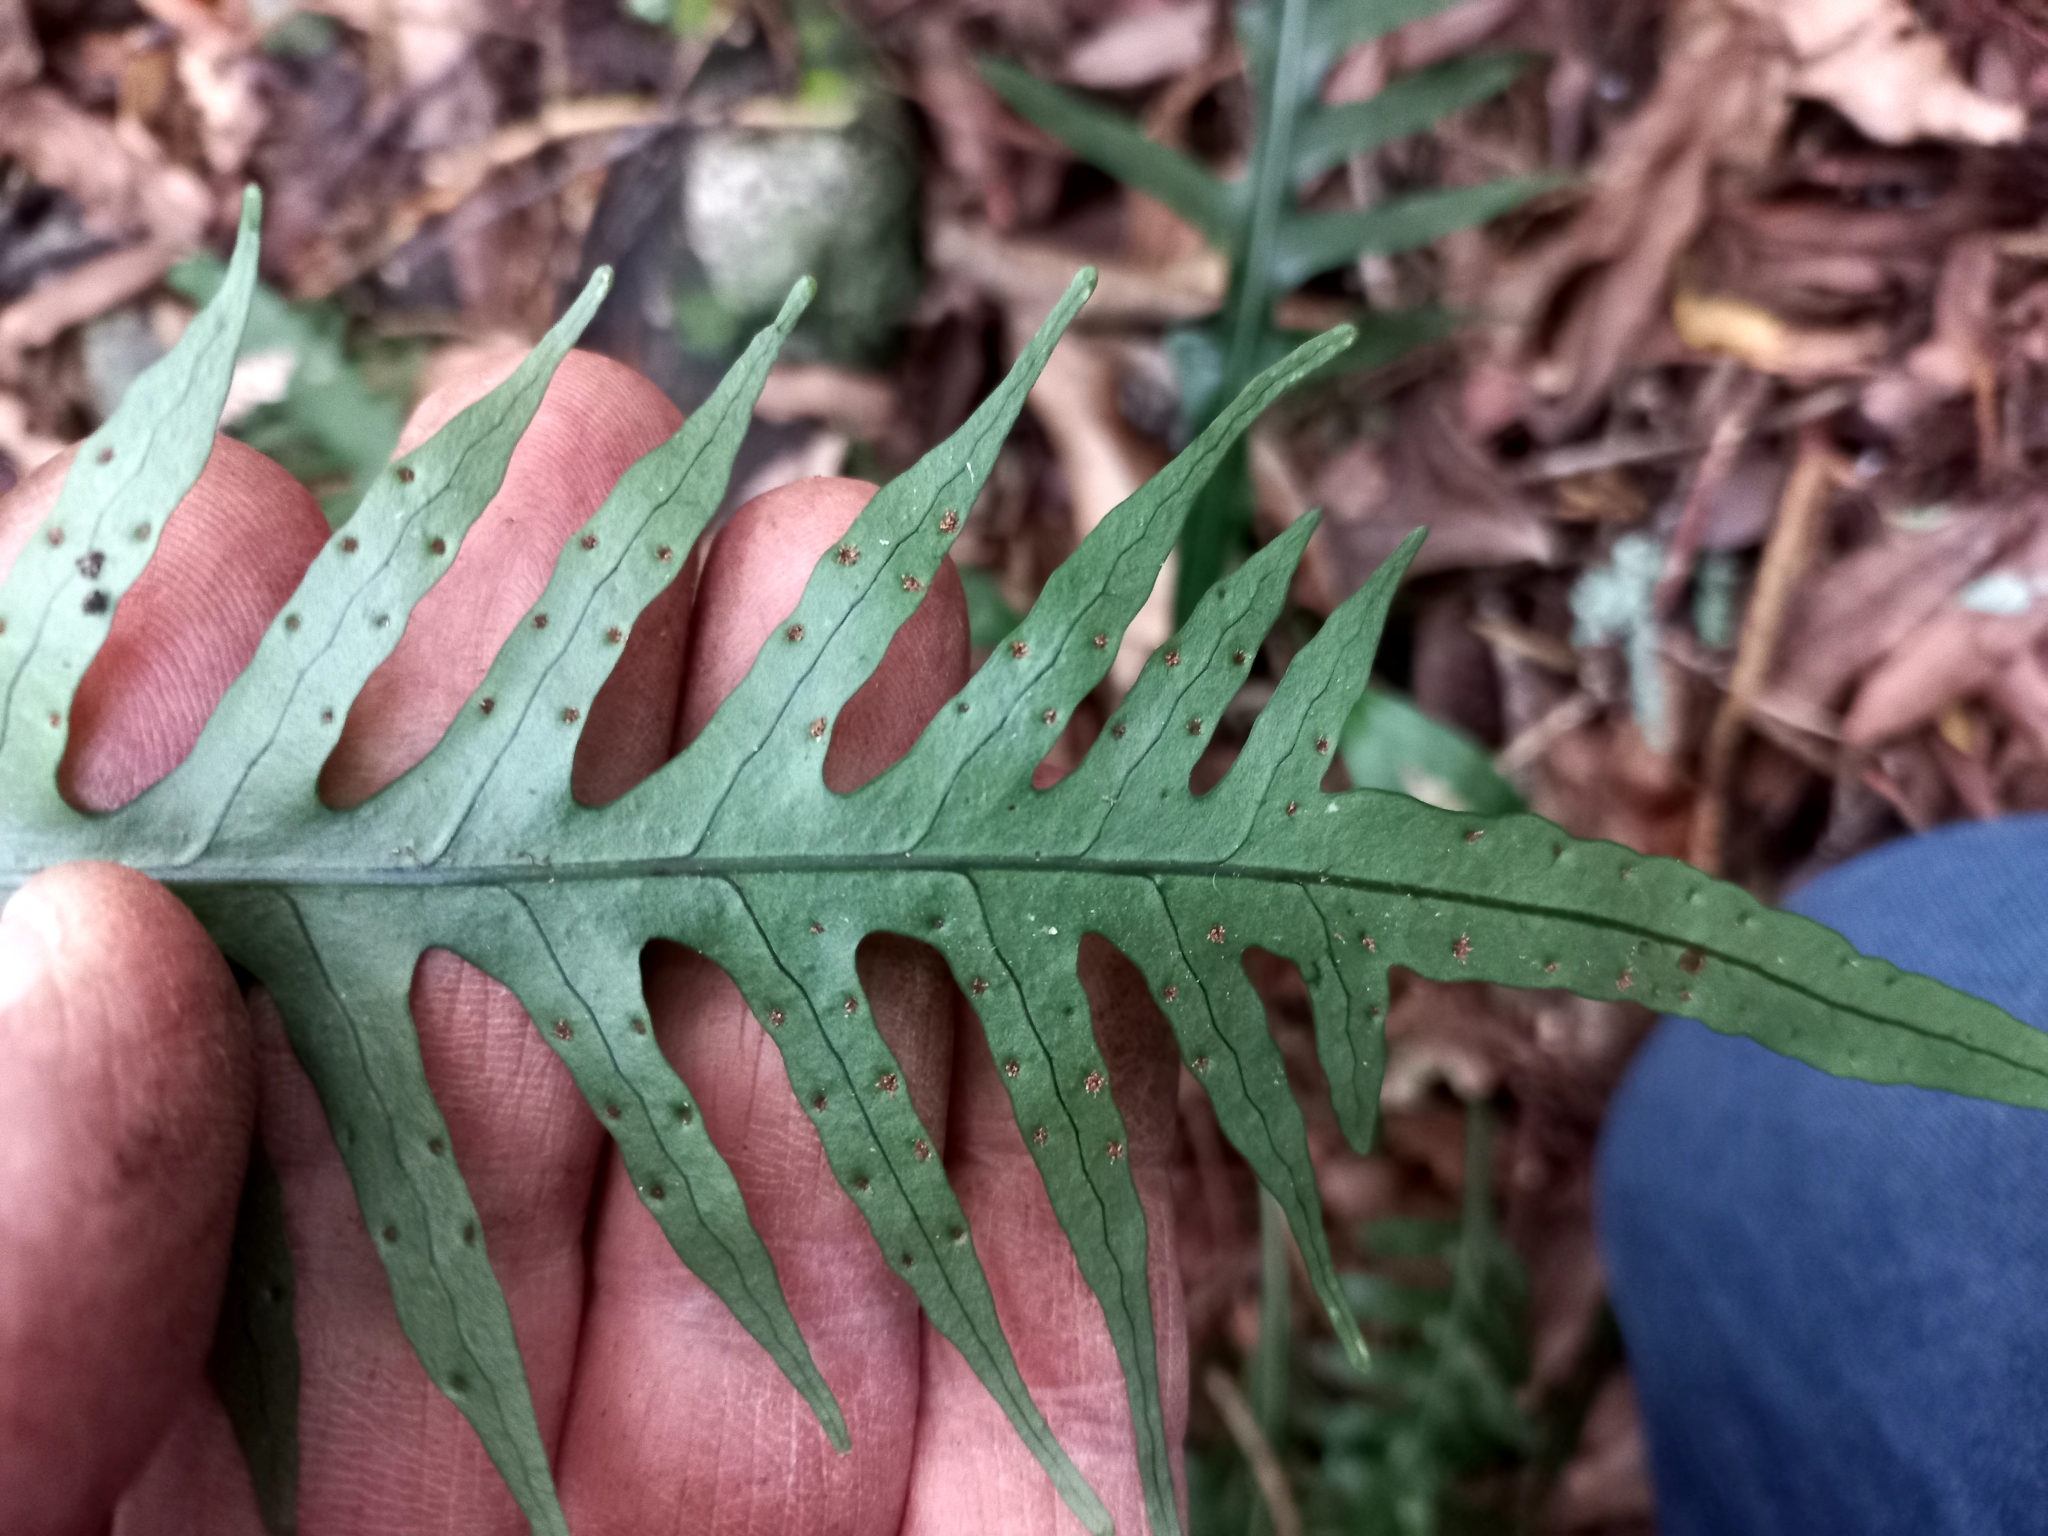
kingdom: Plantae
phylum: Tracheophyta
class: Polypodiopsida
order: Polypodiales
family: Polypodiaceae
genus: Lecanopteris
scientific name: Lecanopteris scandens
